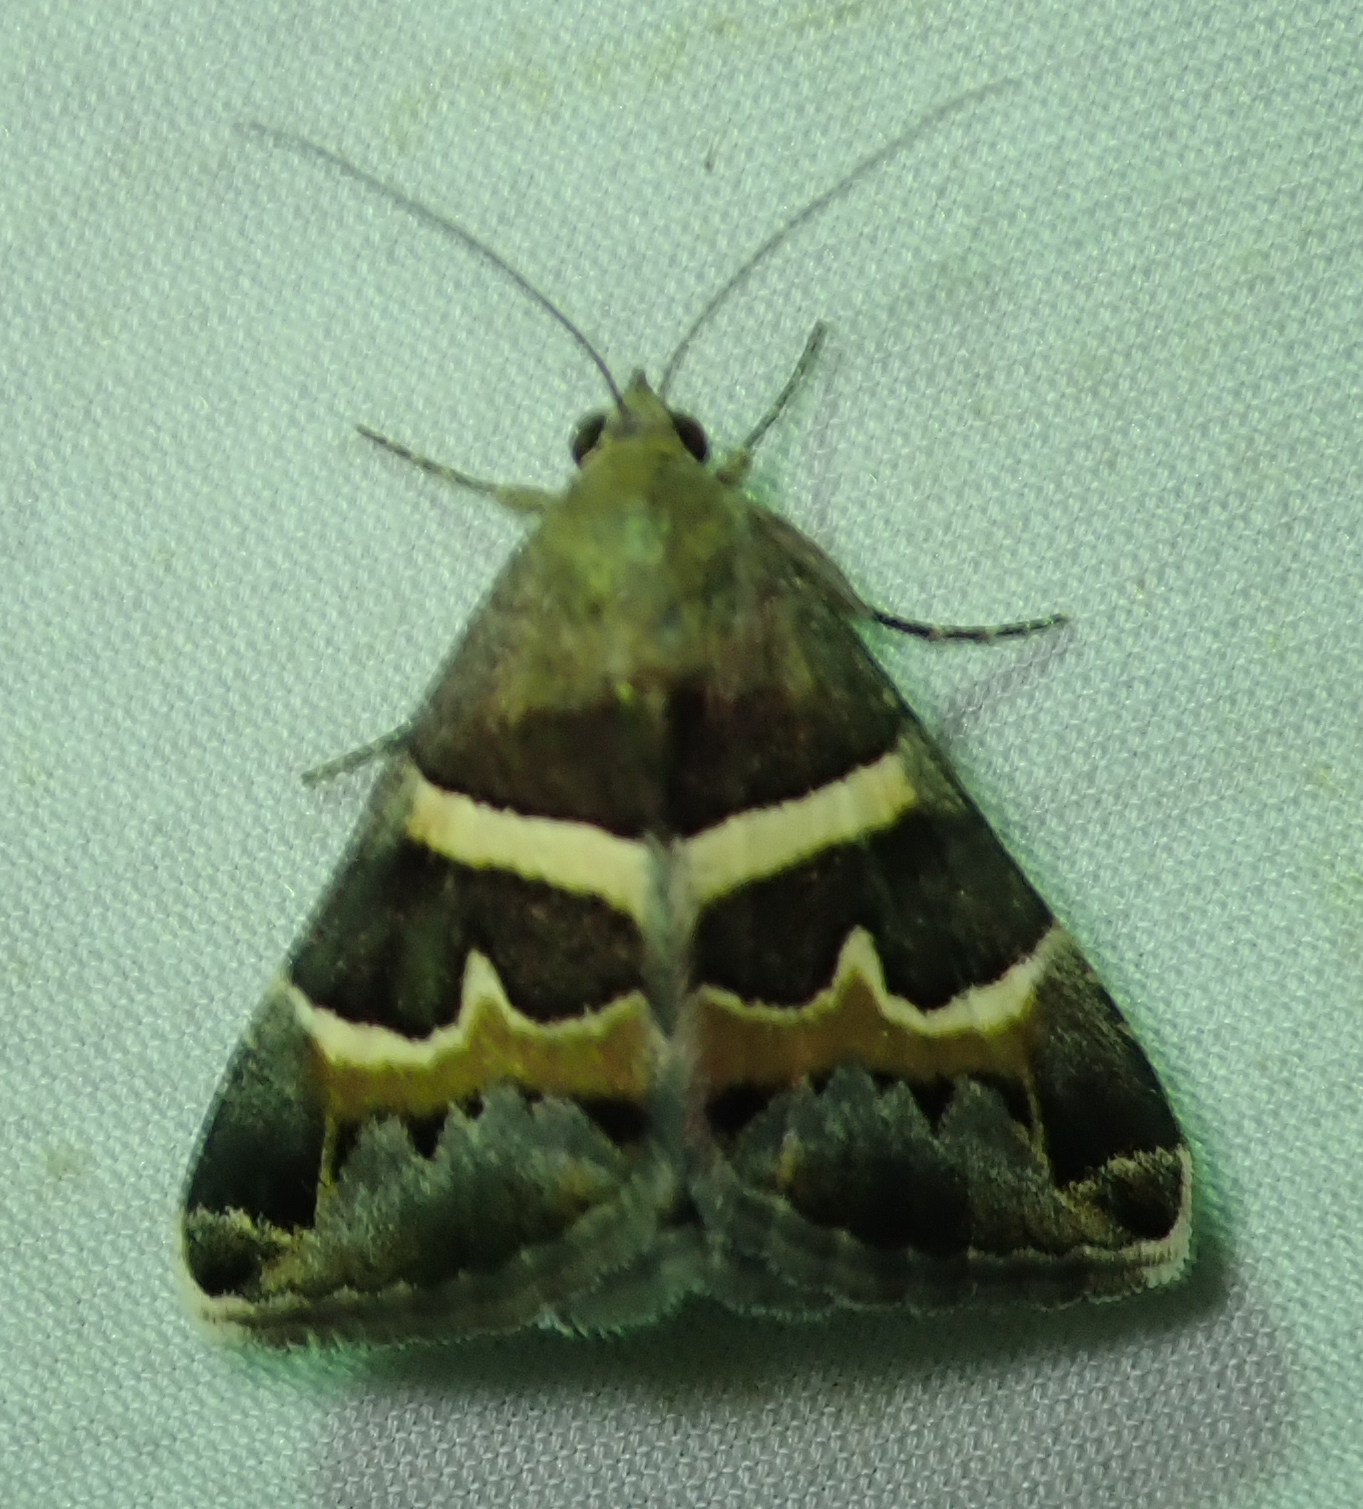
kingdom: Animalia
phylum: Arthropoda
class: Insecta
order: Lepidoptera
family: Erebidae
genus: Grammodes
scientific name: Grammodes stolida
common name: Geometrician
